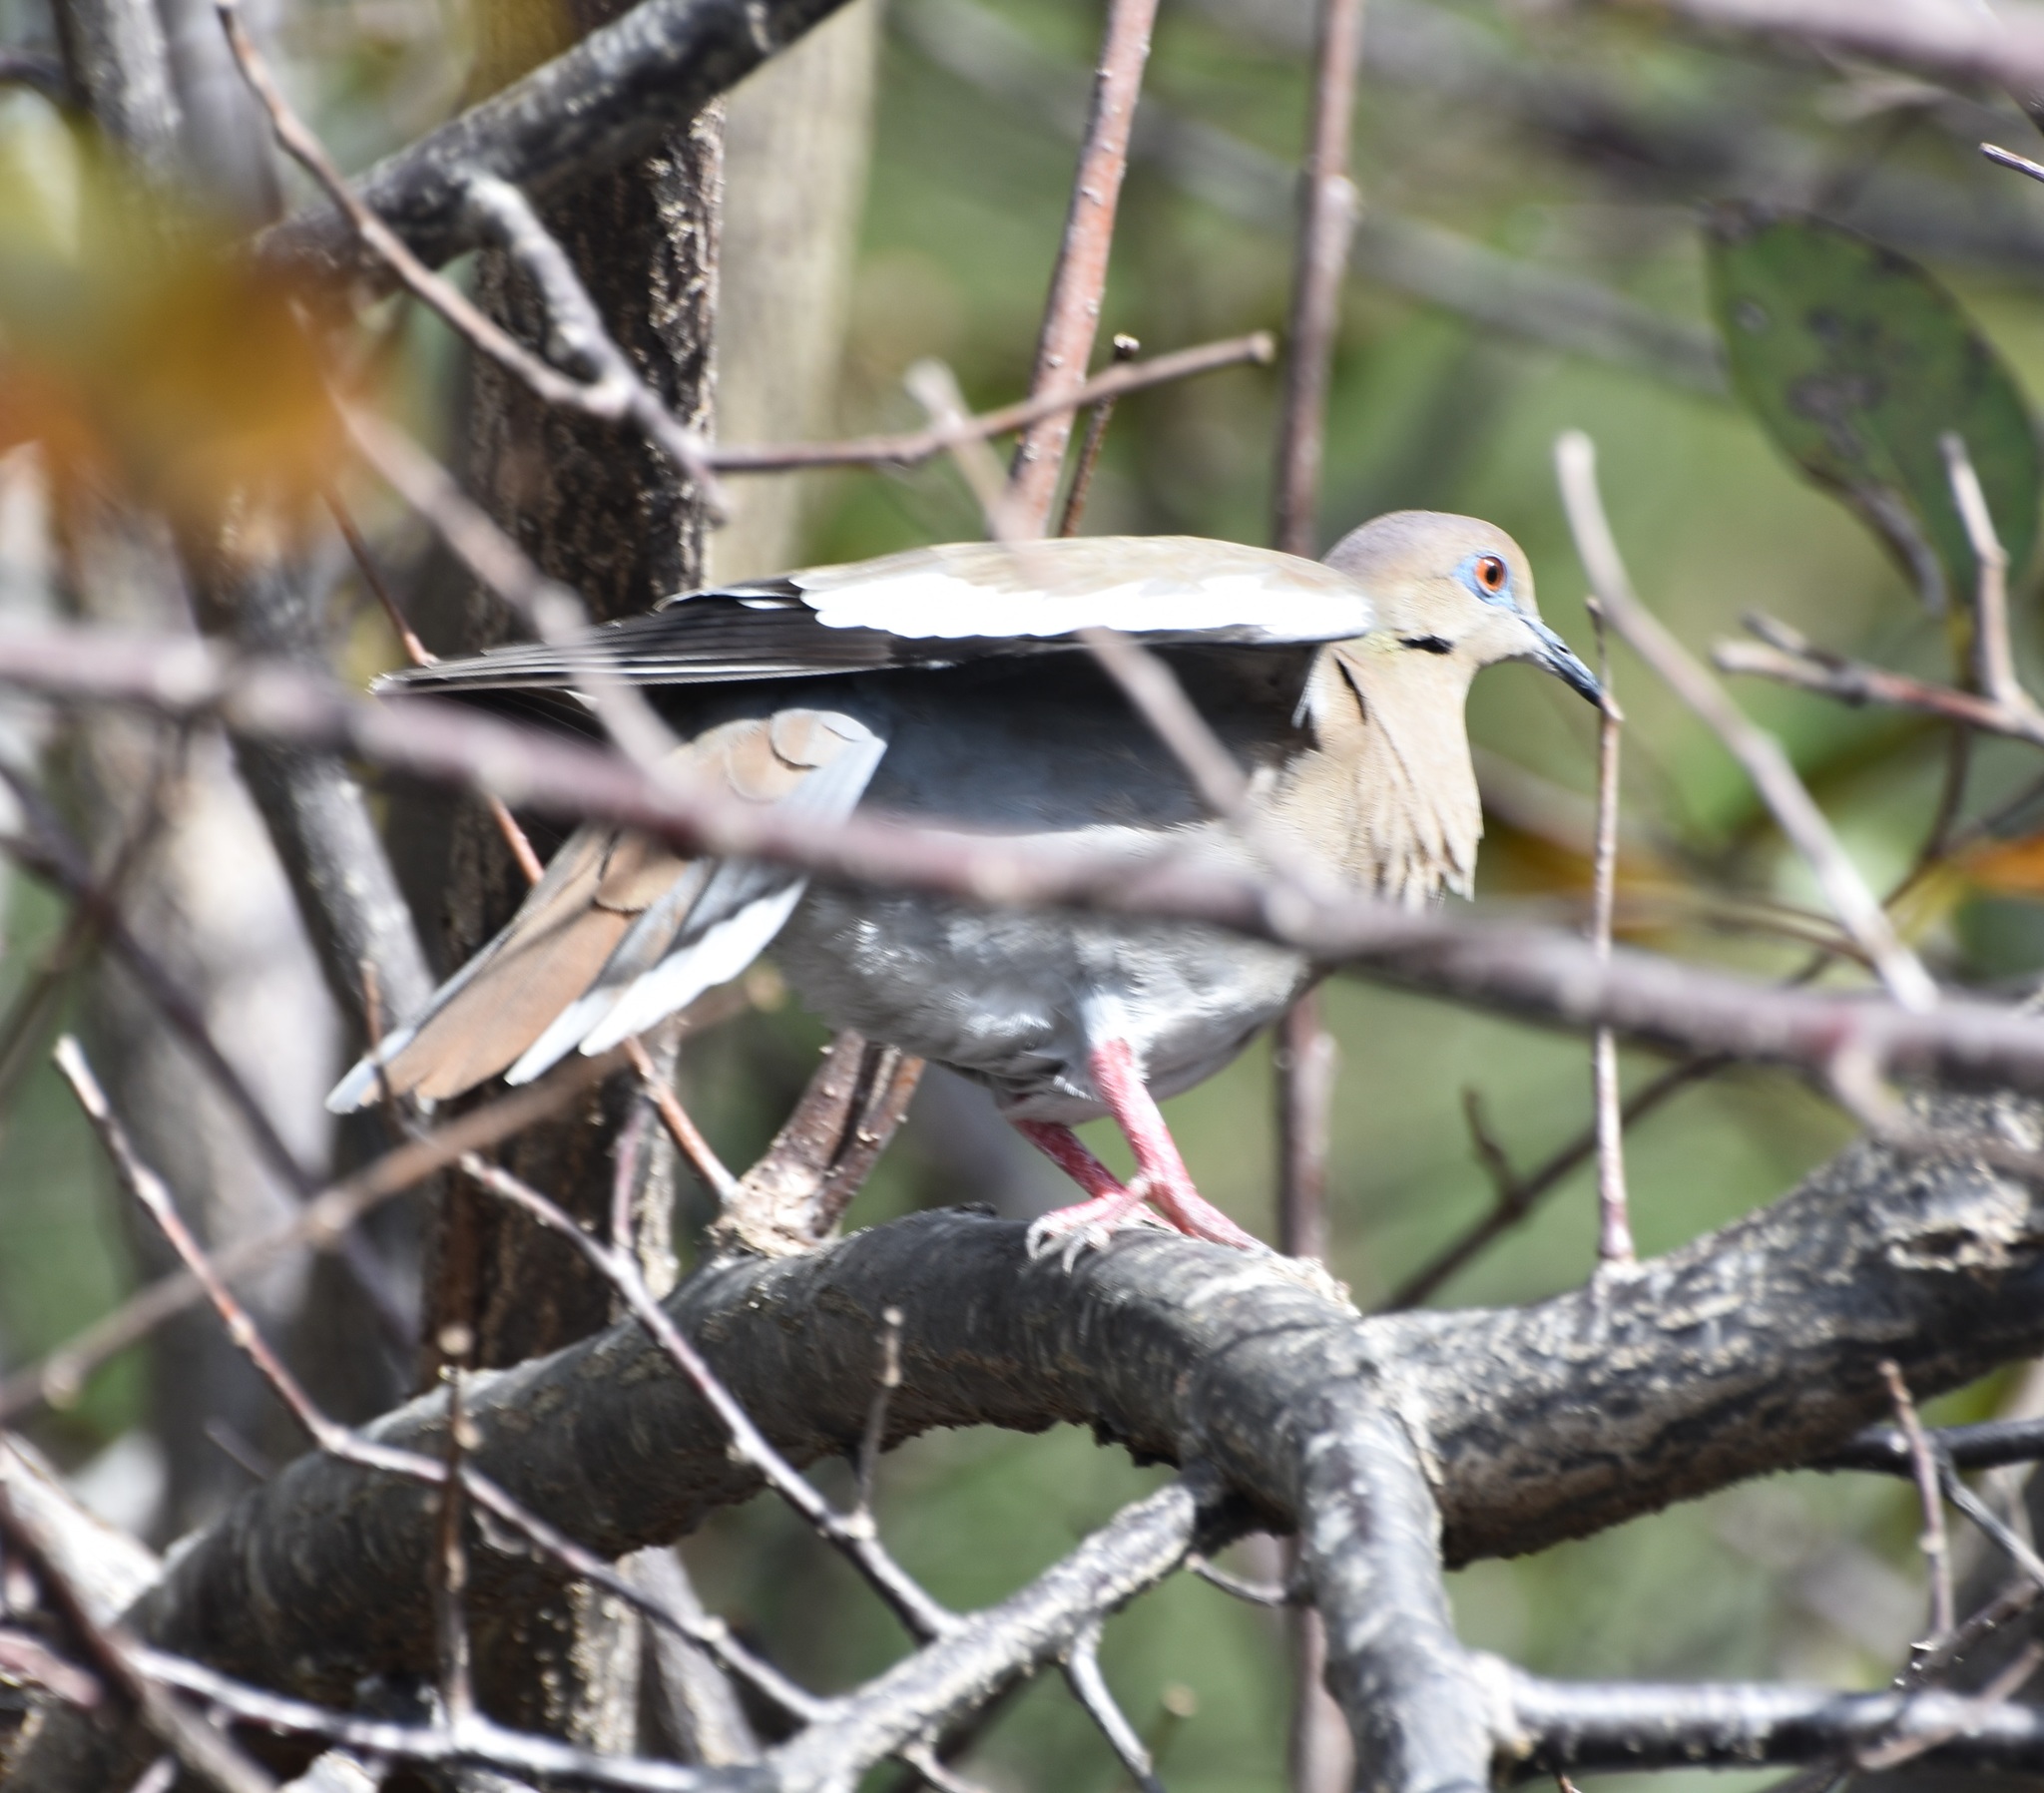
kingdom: Animalia
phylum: Chordata
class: Aves
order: Columbiformes
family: Columbidae
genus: Zenaida
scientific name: Zenaida asiatica
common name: White-winged dove
